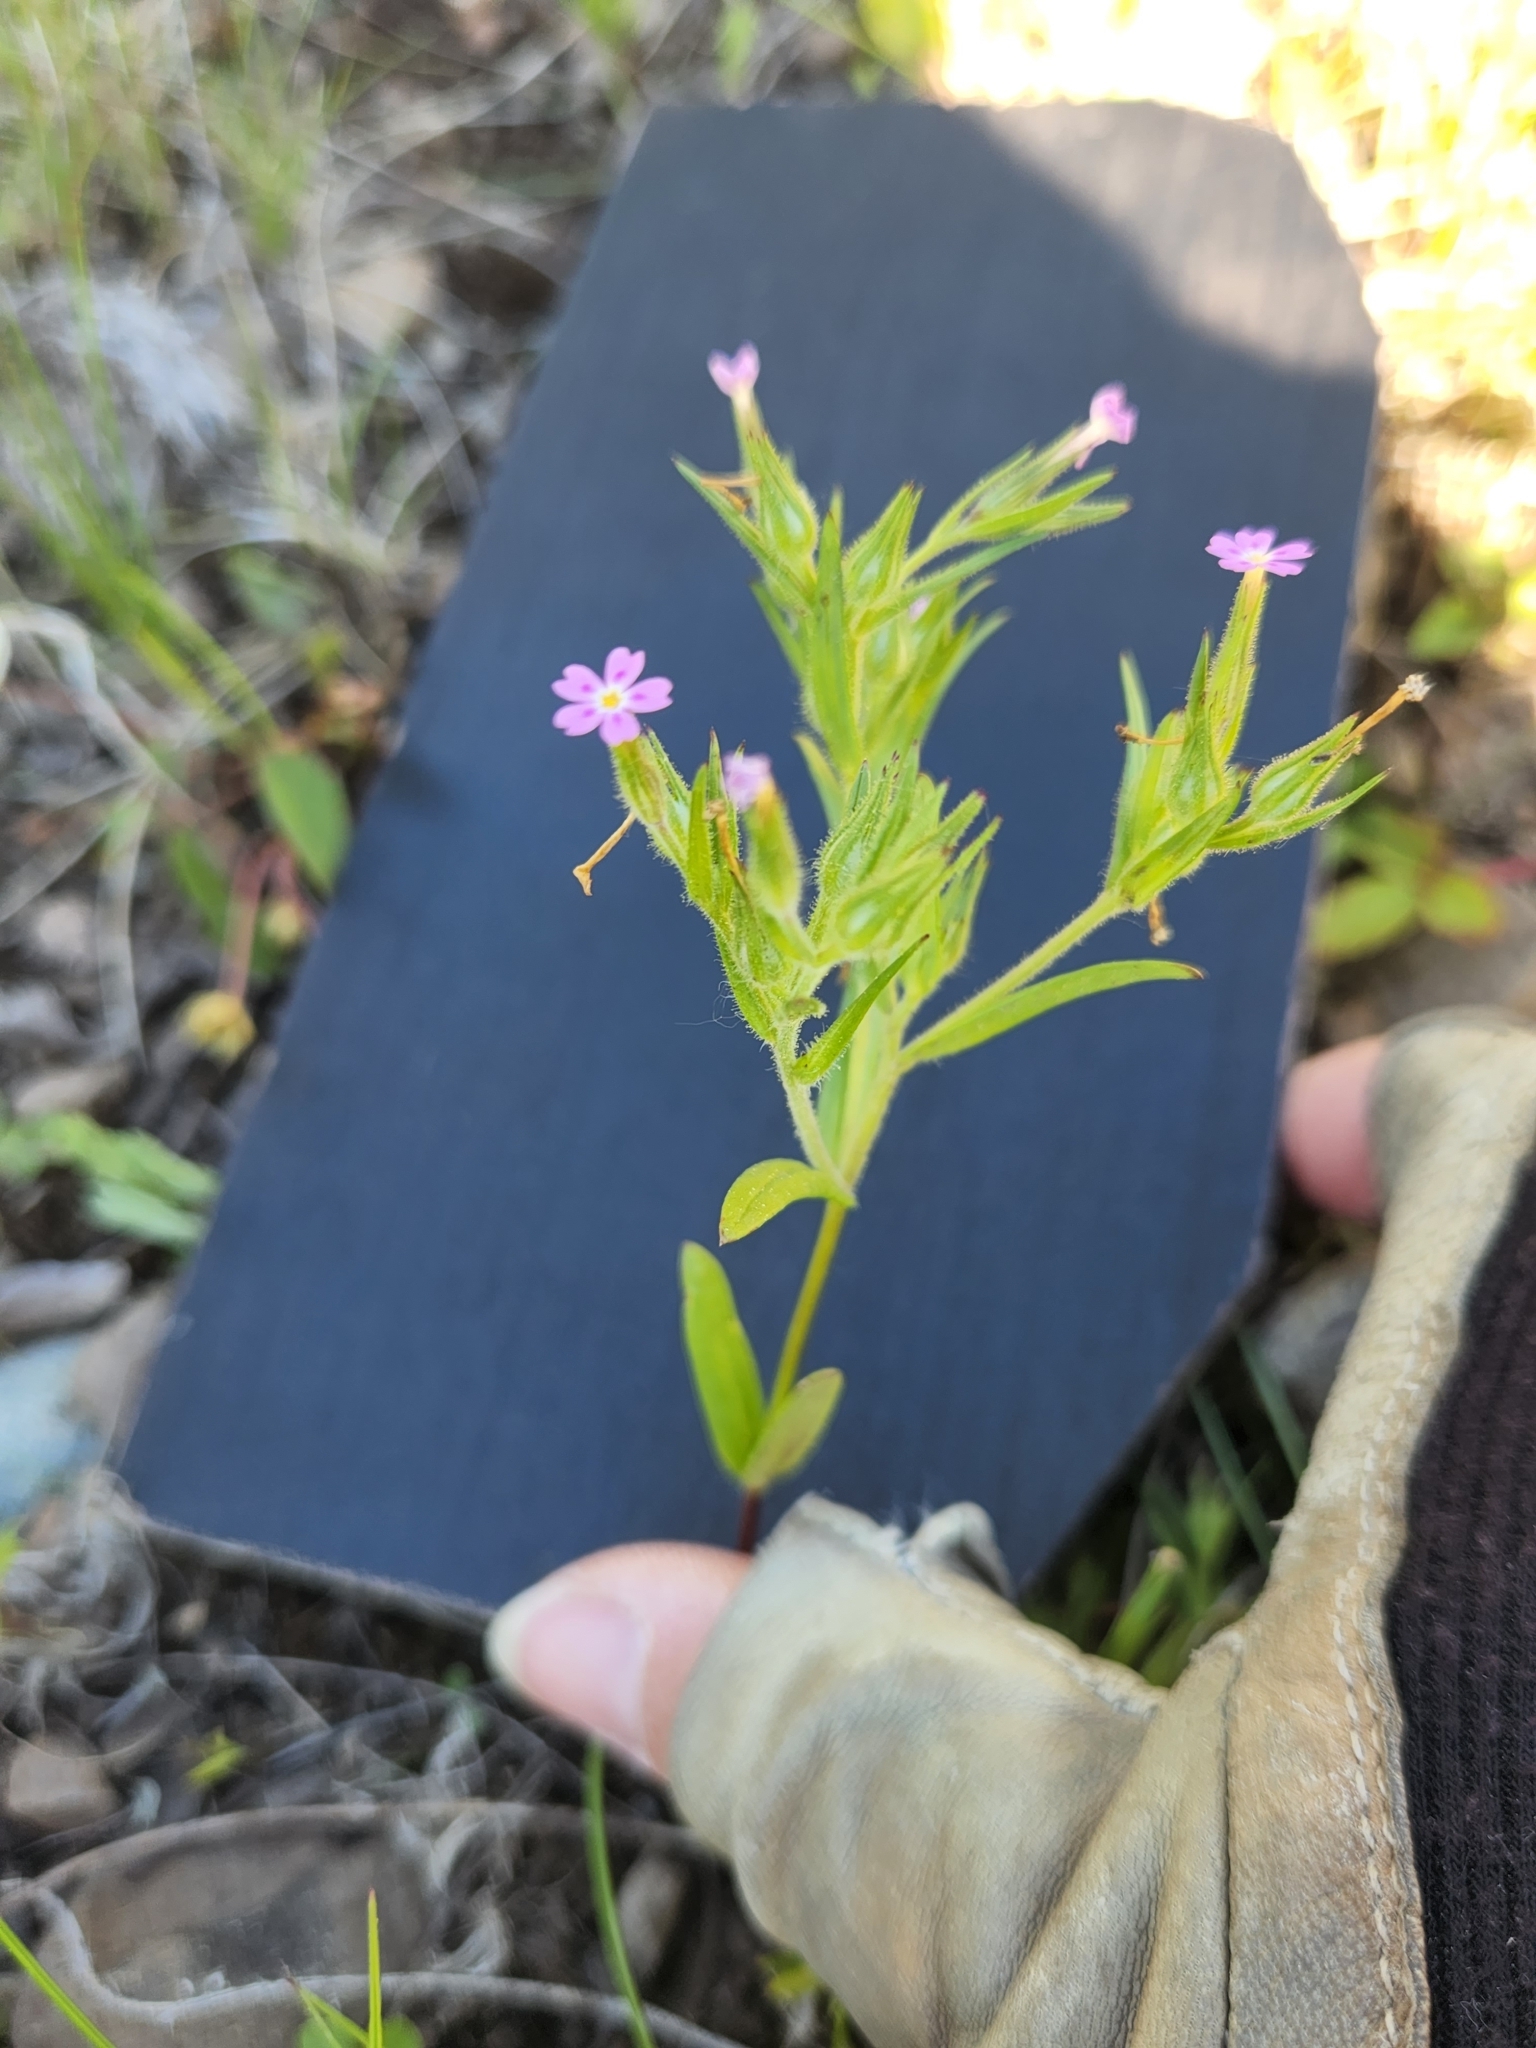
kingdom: Plantae
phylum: Tracheophyta
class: Magnoliopsida
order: Ericales
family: Polemoniaceae
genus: Phlox
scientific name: Phlox gracilis
